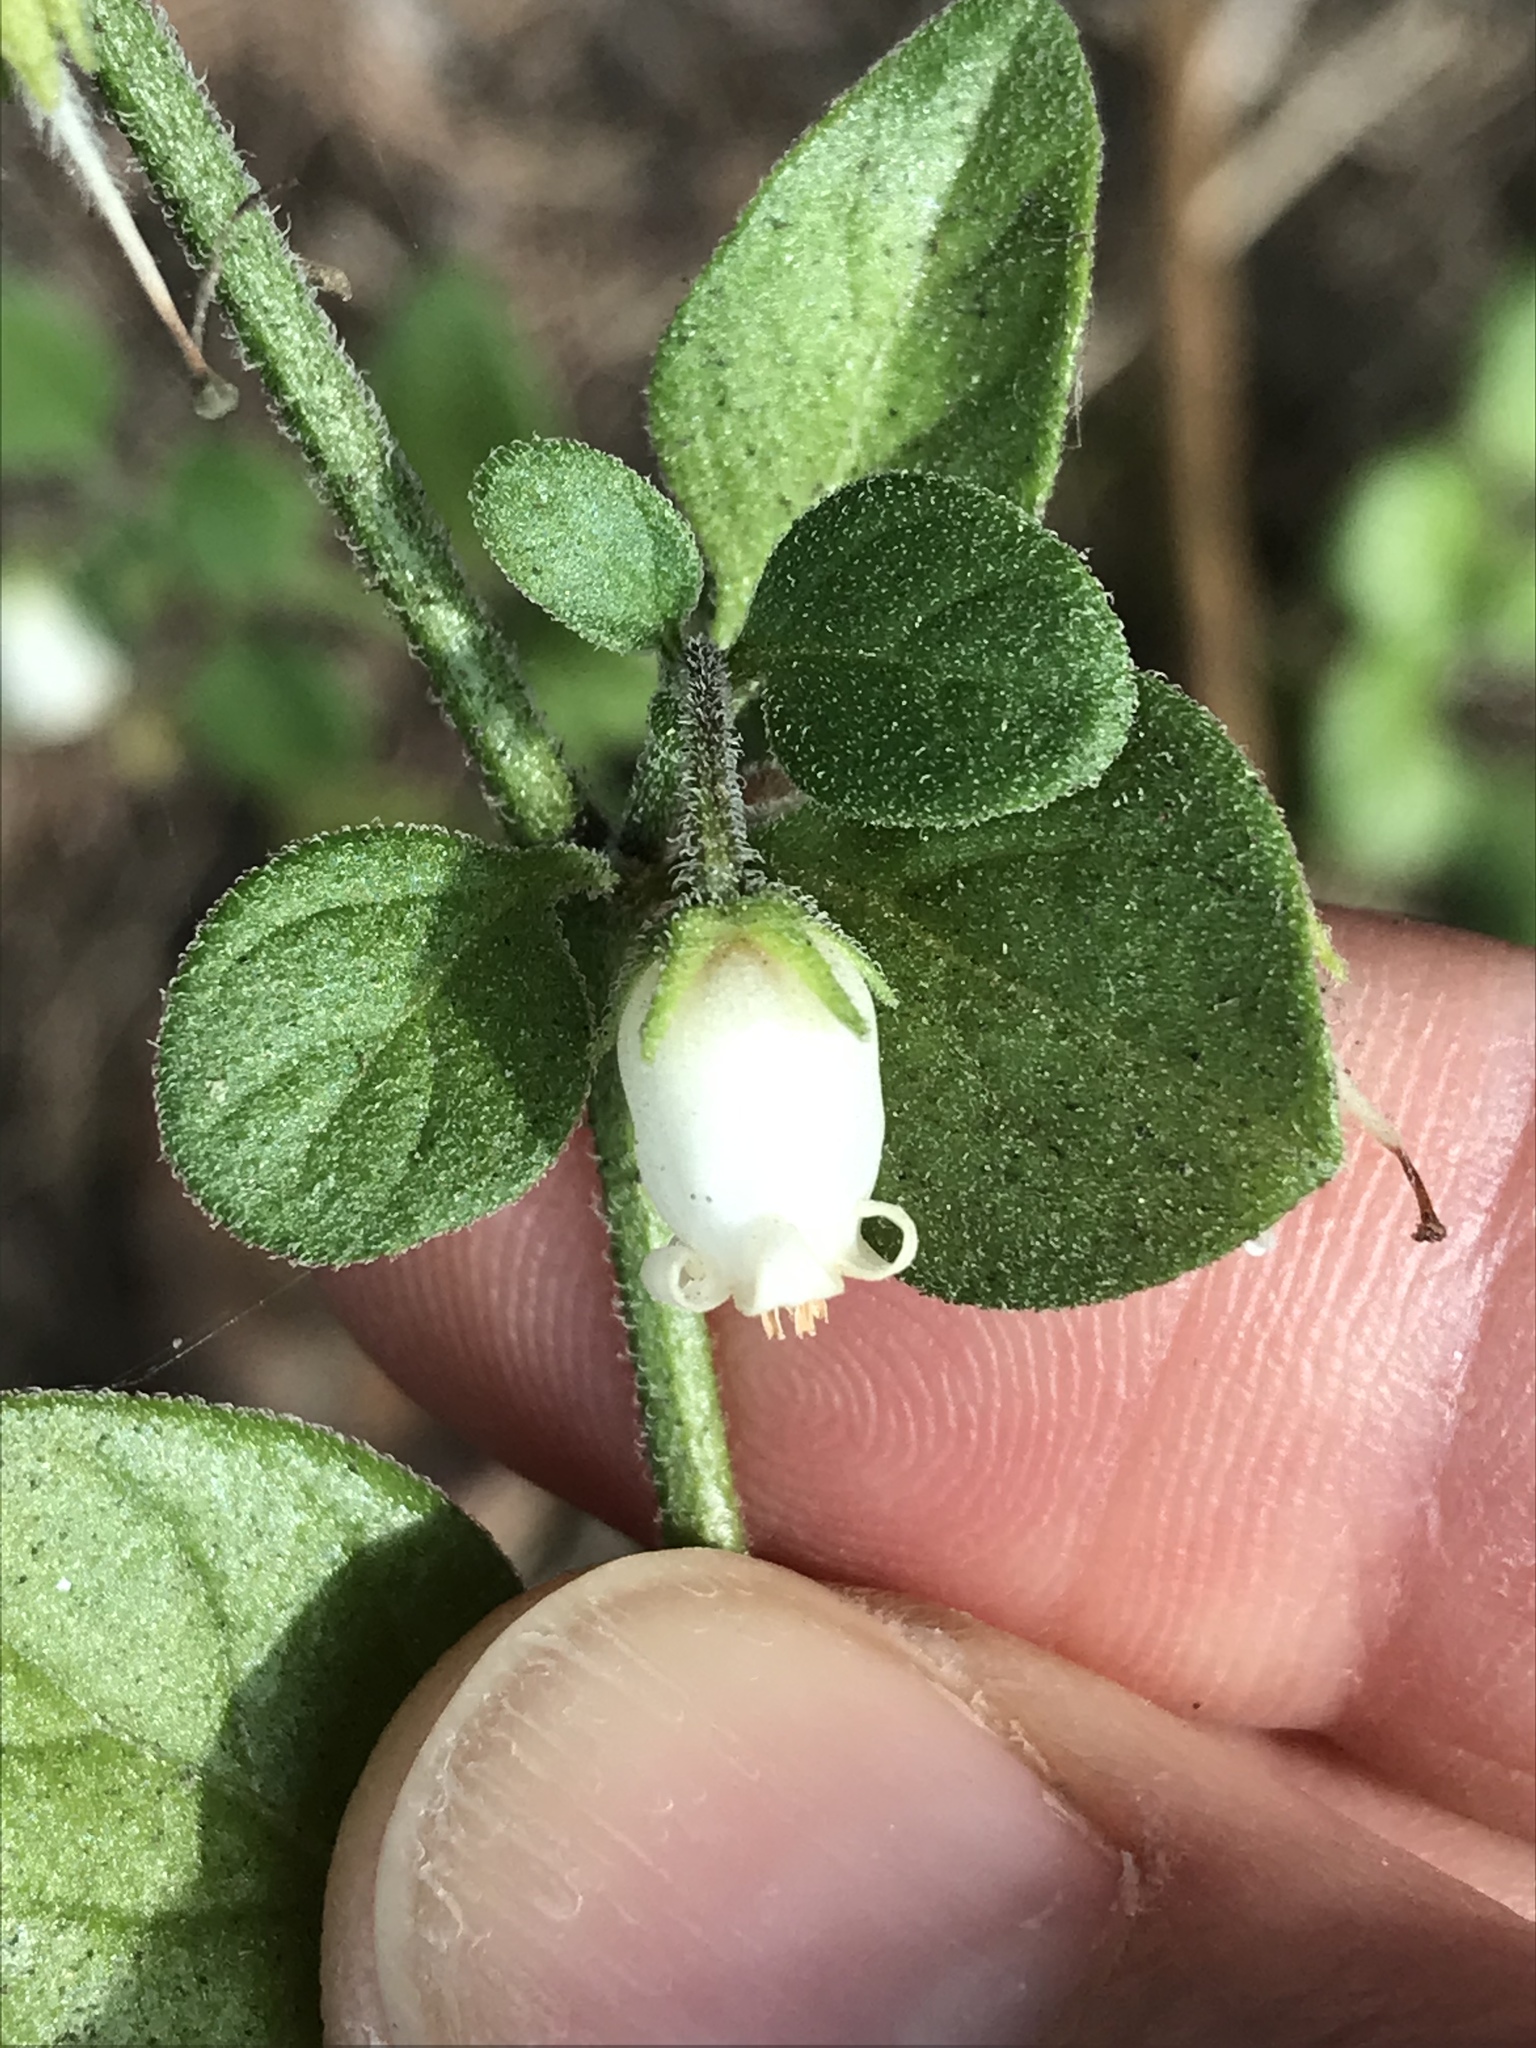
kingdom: Plantae
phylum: Tracheophyta
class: Magnoliopsida
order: Solanales
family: Solanaceae
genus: Salpichroa
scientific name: Salpichroa origanifolia
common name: Lily-of-the-valley-vine
